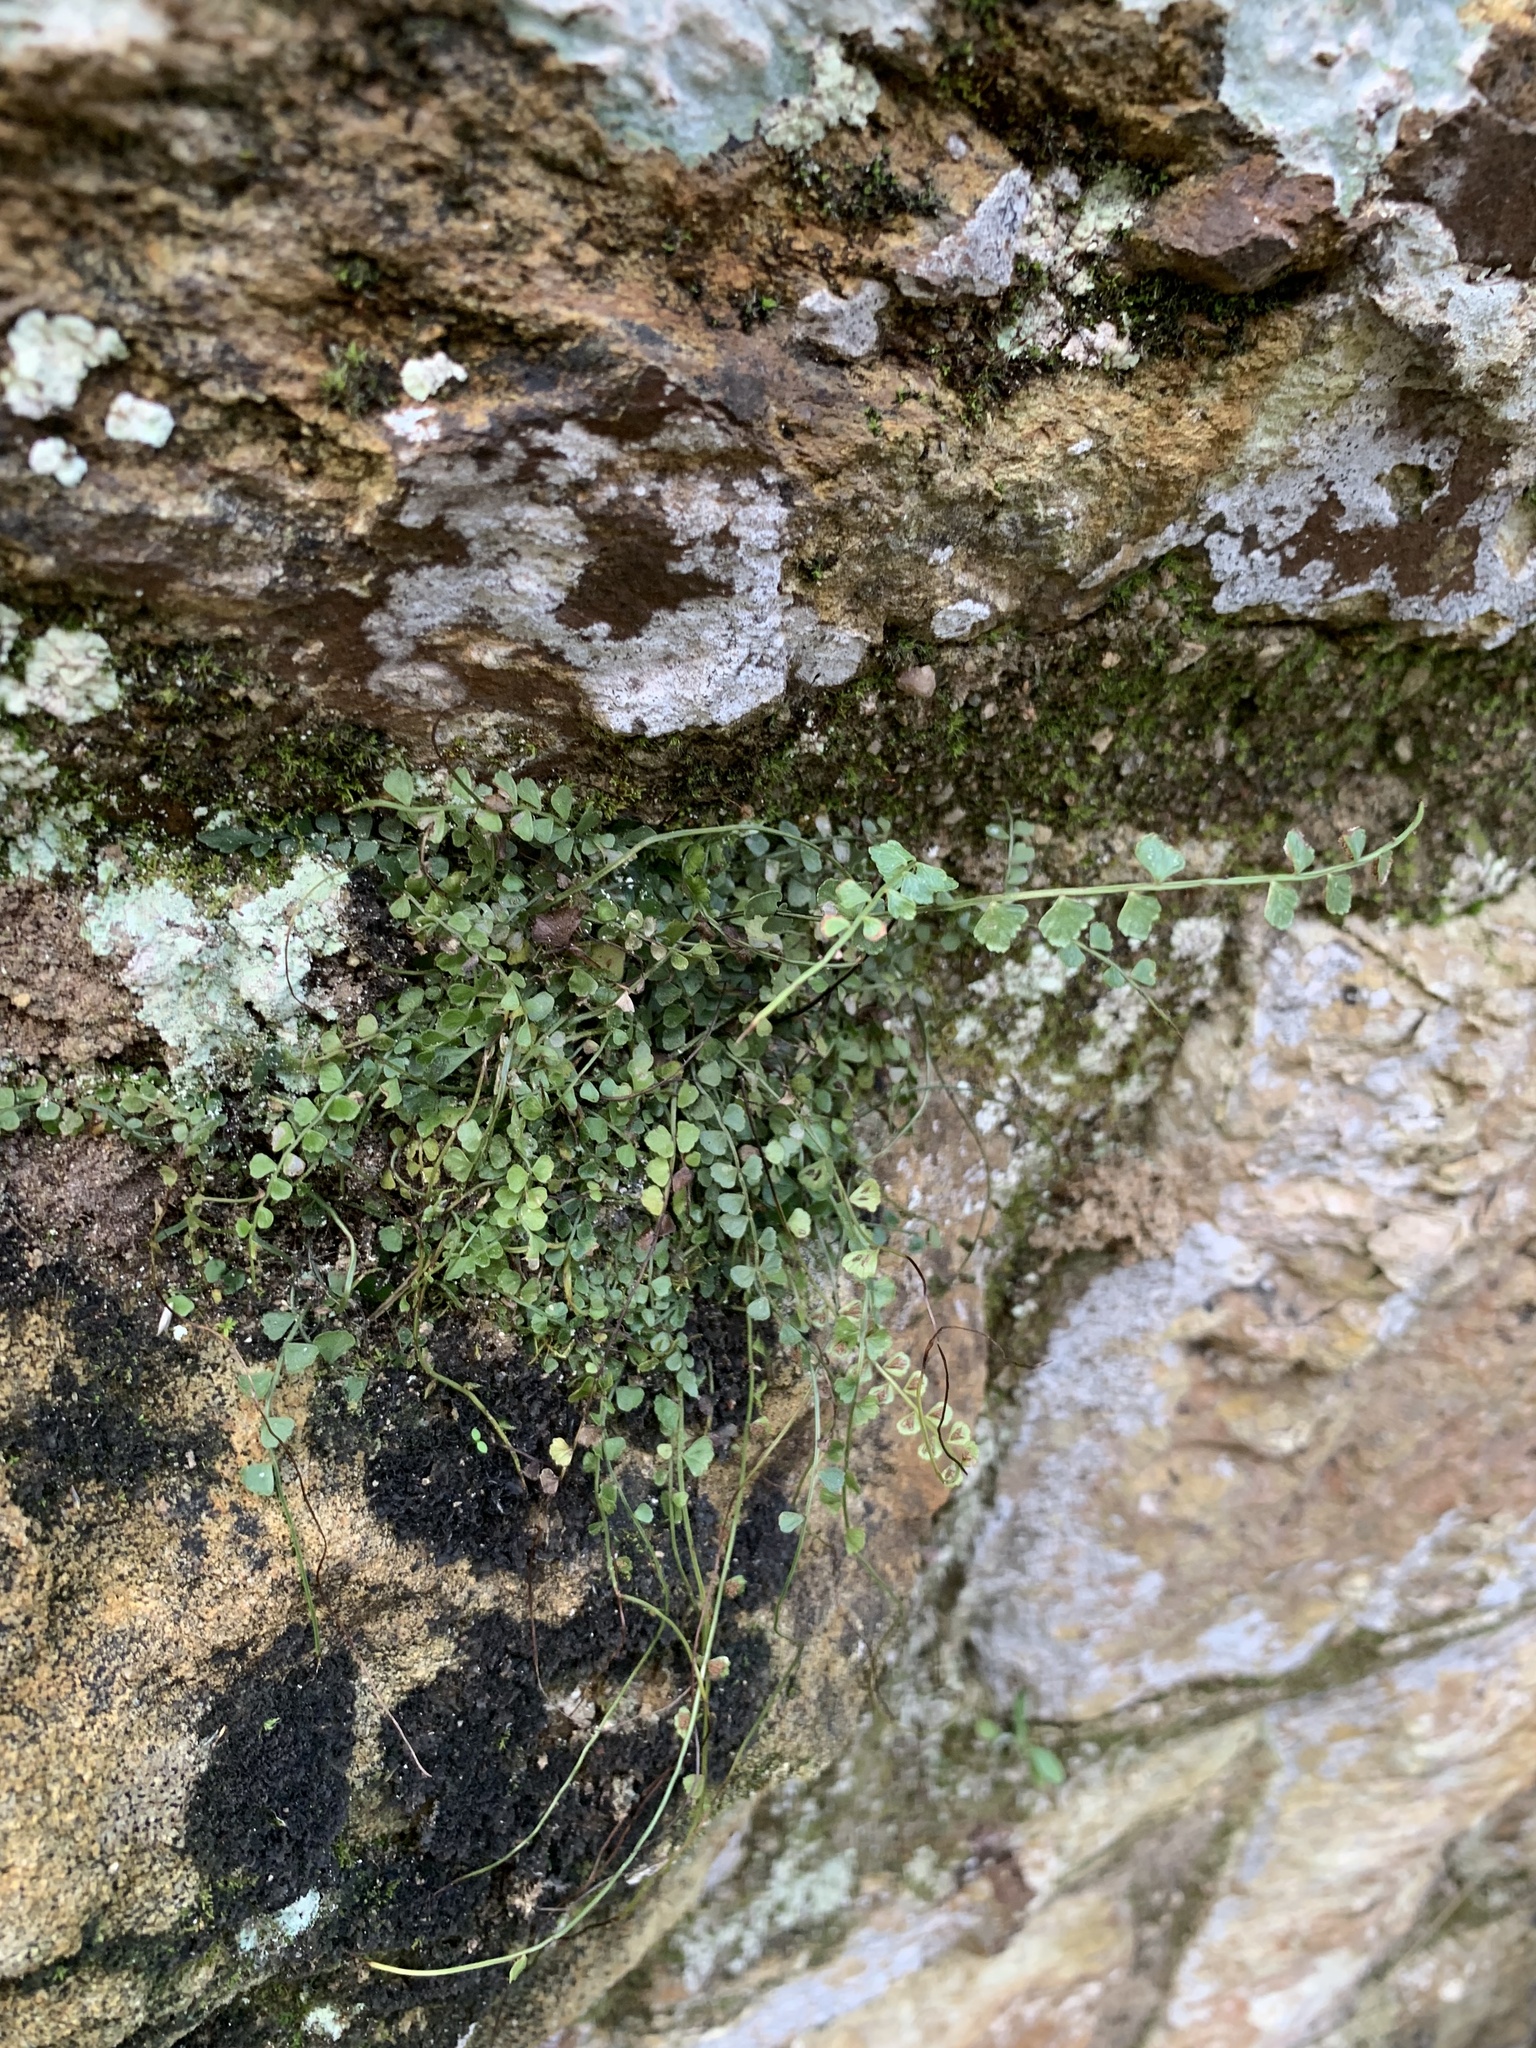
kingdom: Plantae
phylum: Tracheophyta
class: Polypodiopsida
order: Polypodiales
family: Aspleniaceae
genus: Asplenium
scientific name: Asplenium flabellifolium
